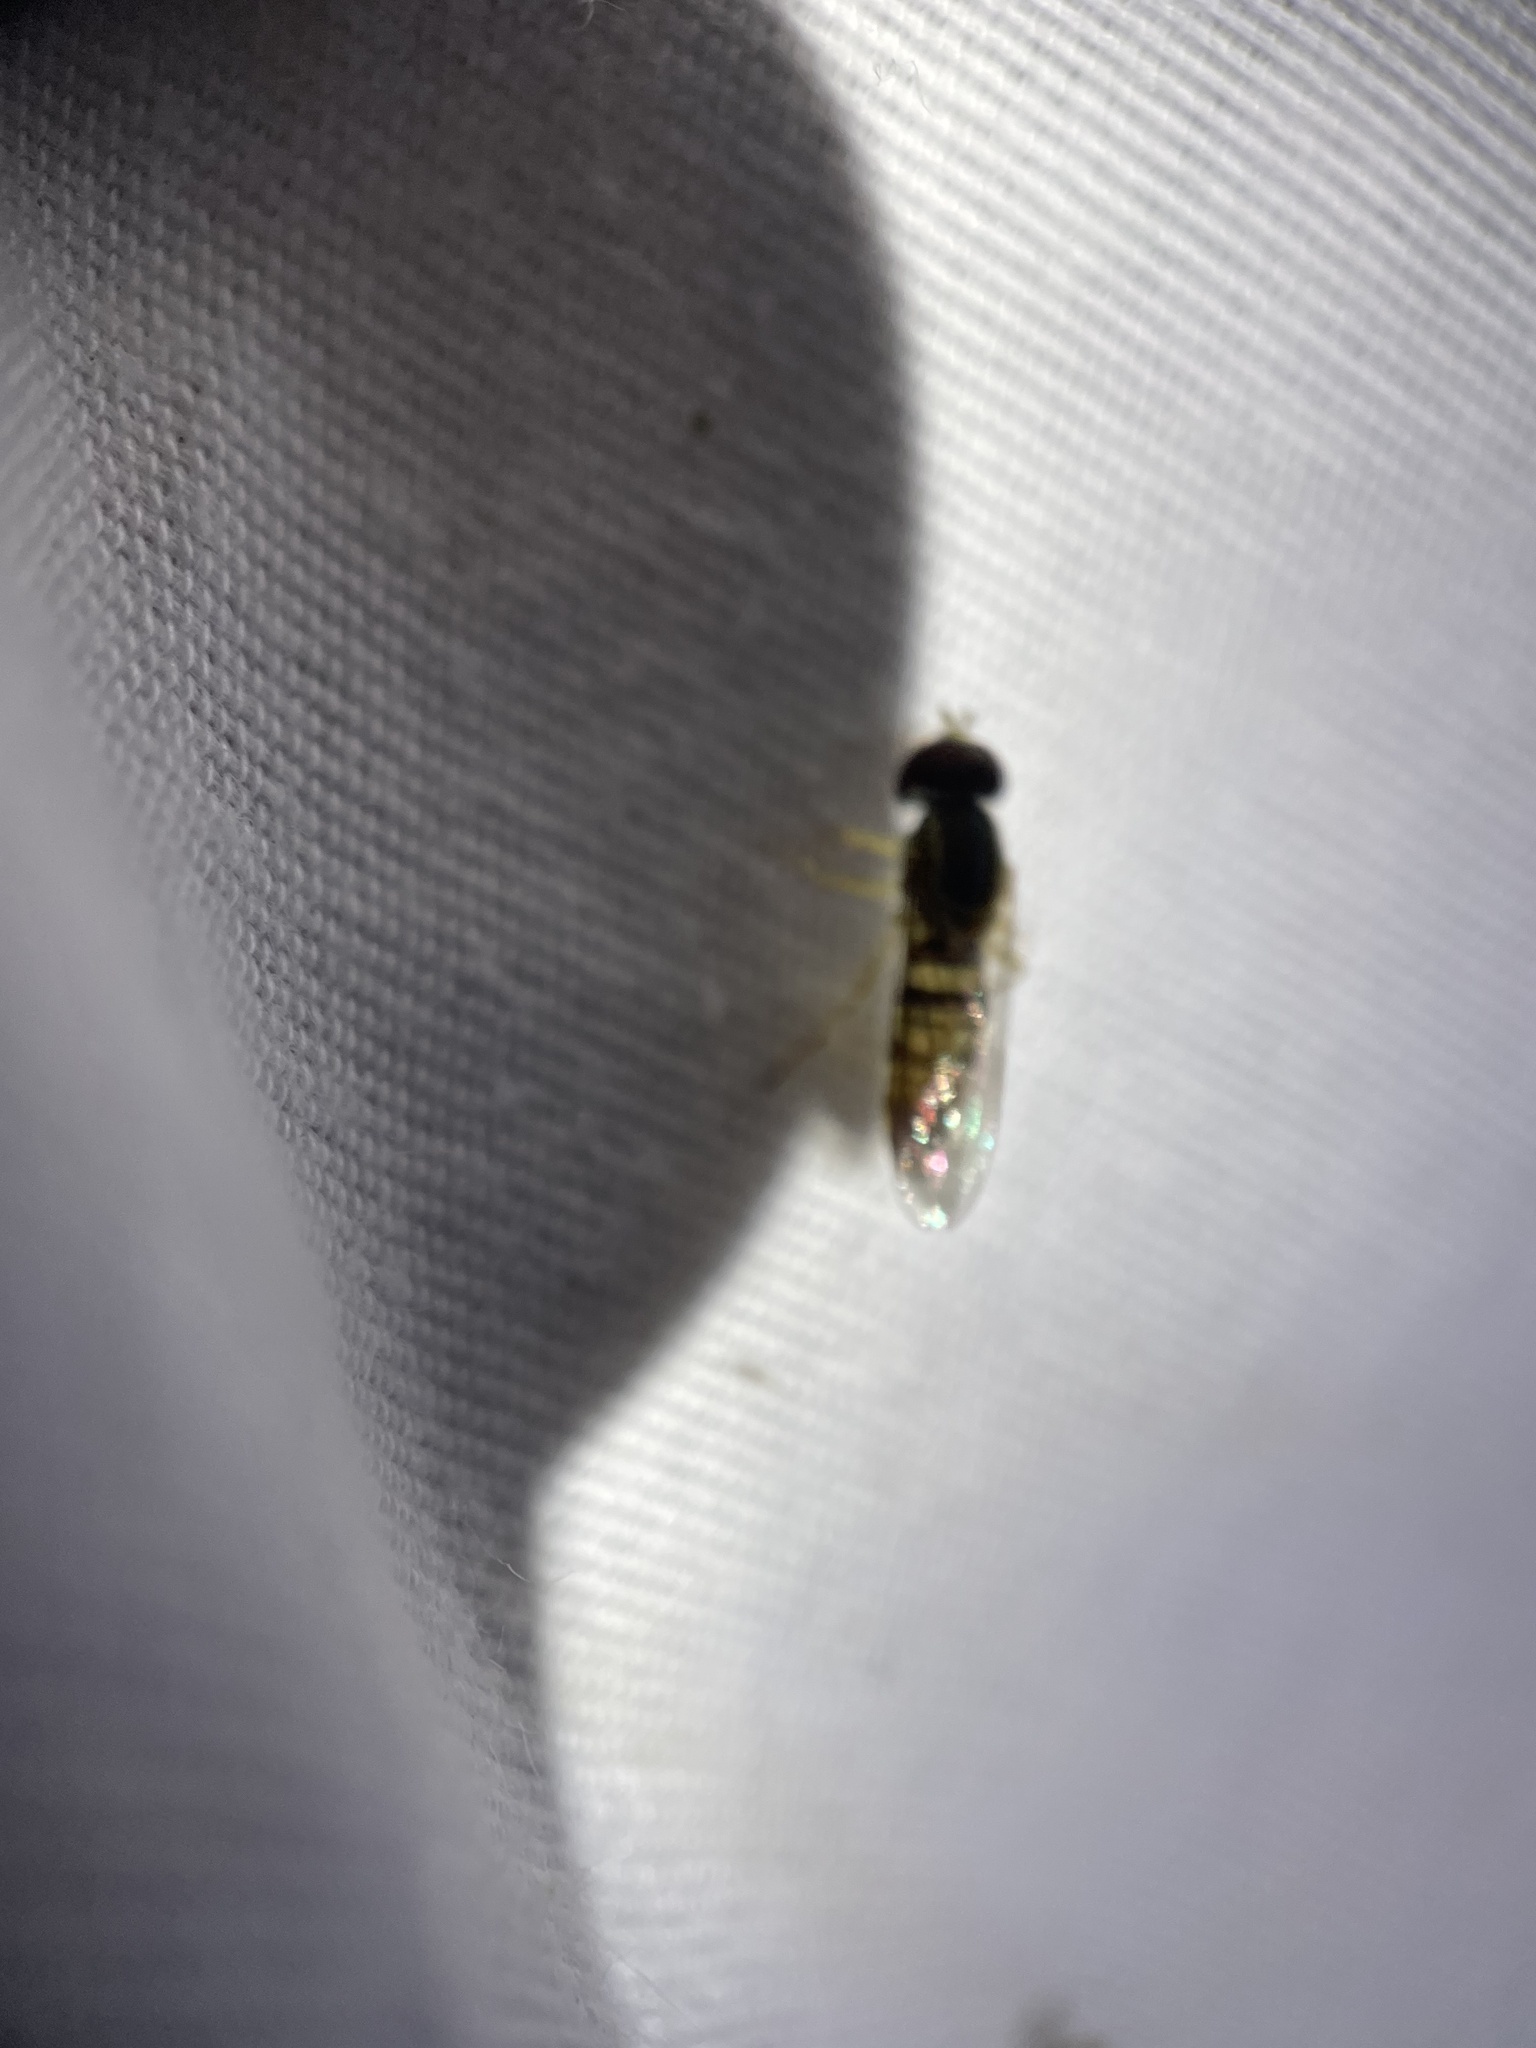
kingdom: Animalia
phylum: Arthropoda
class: Insecta
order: Diptera
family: Syrphidae
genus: Toxomerus
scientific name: Toxomerus politus
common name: Maize calligrapher
